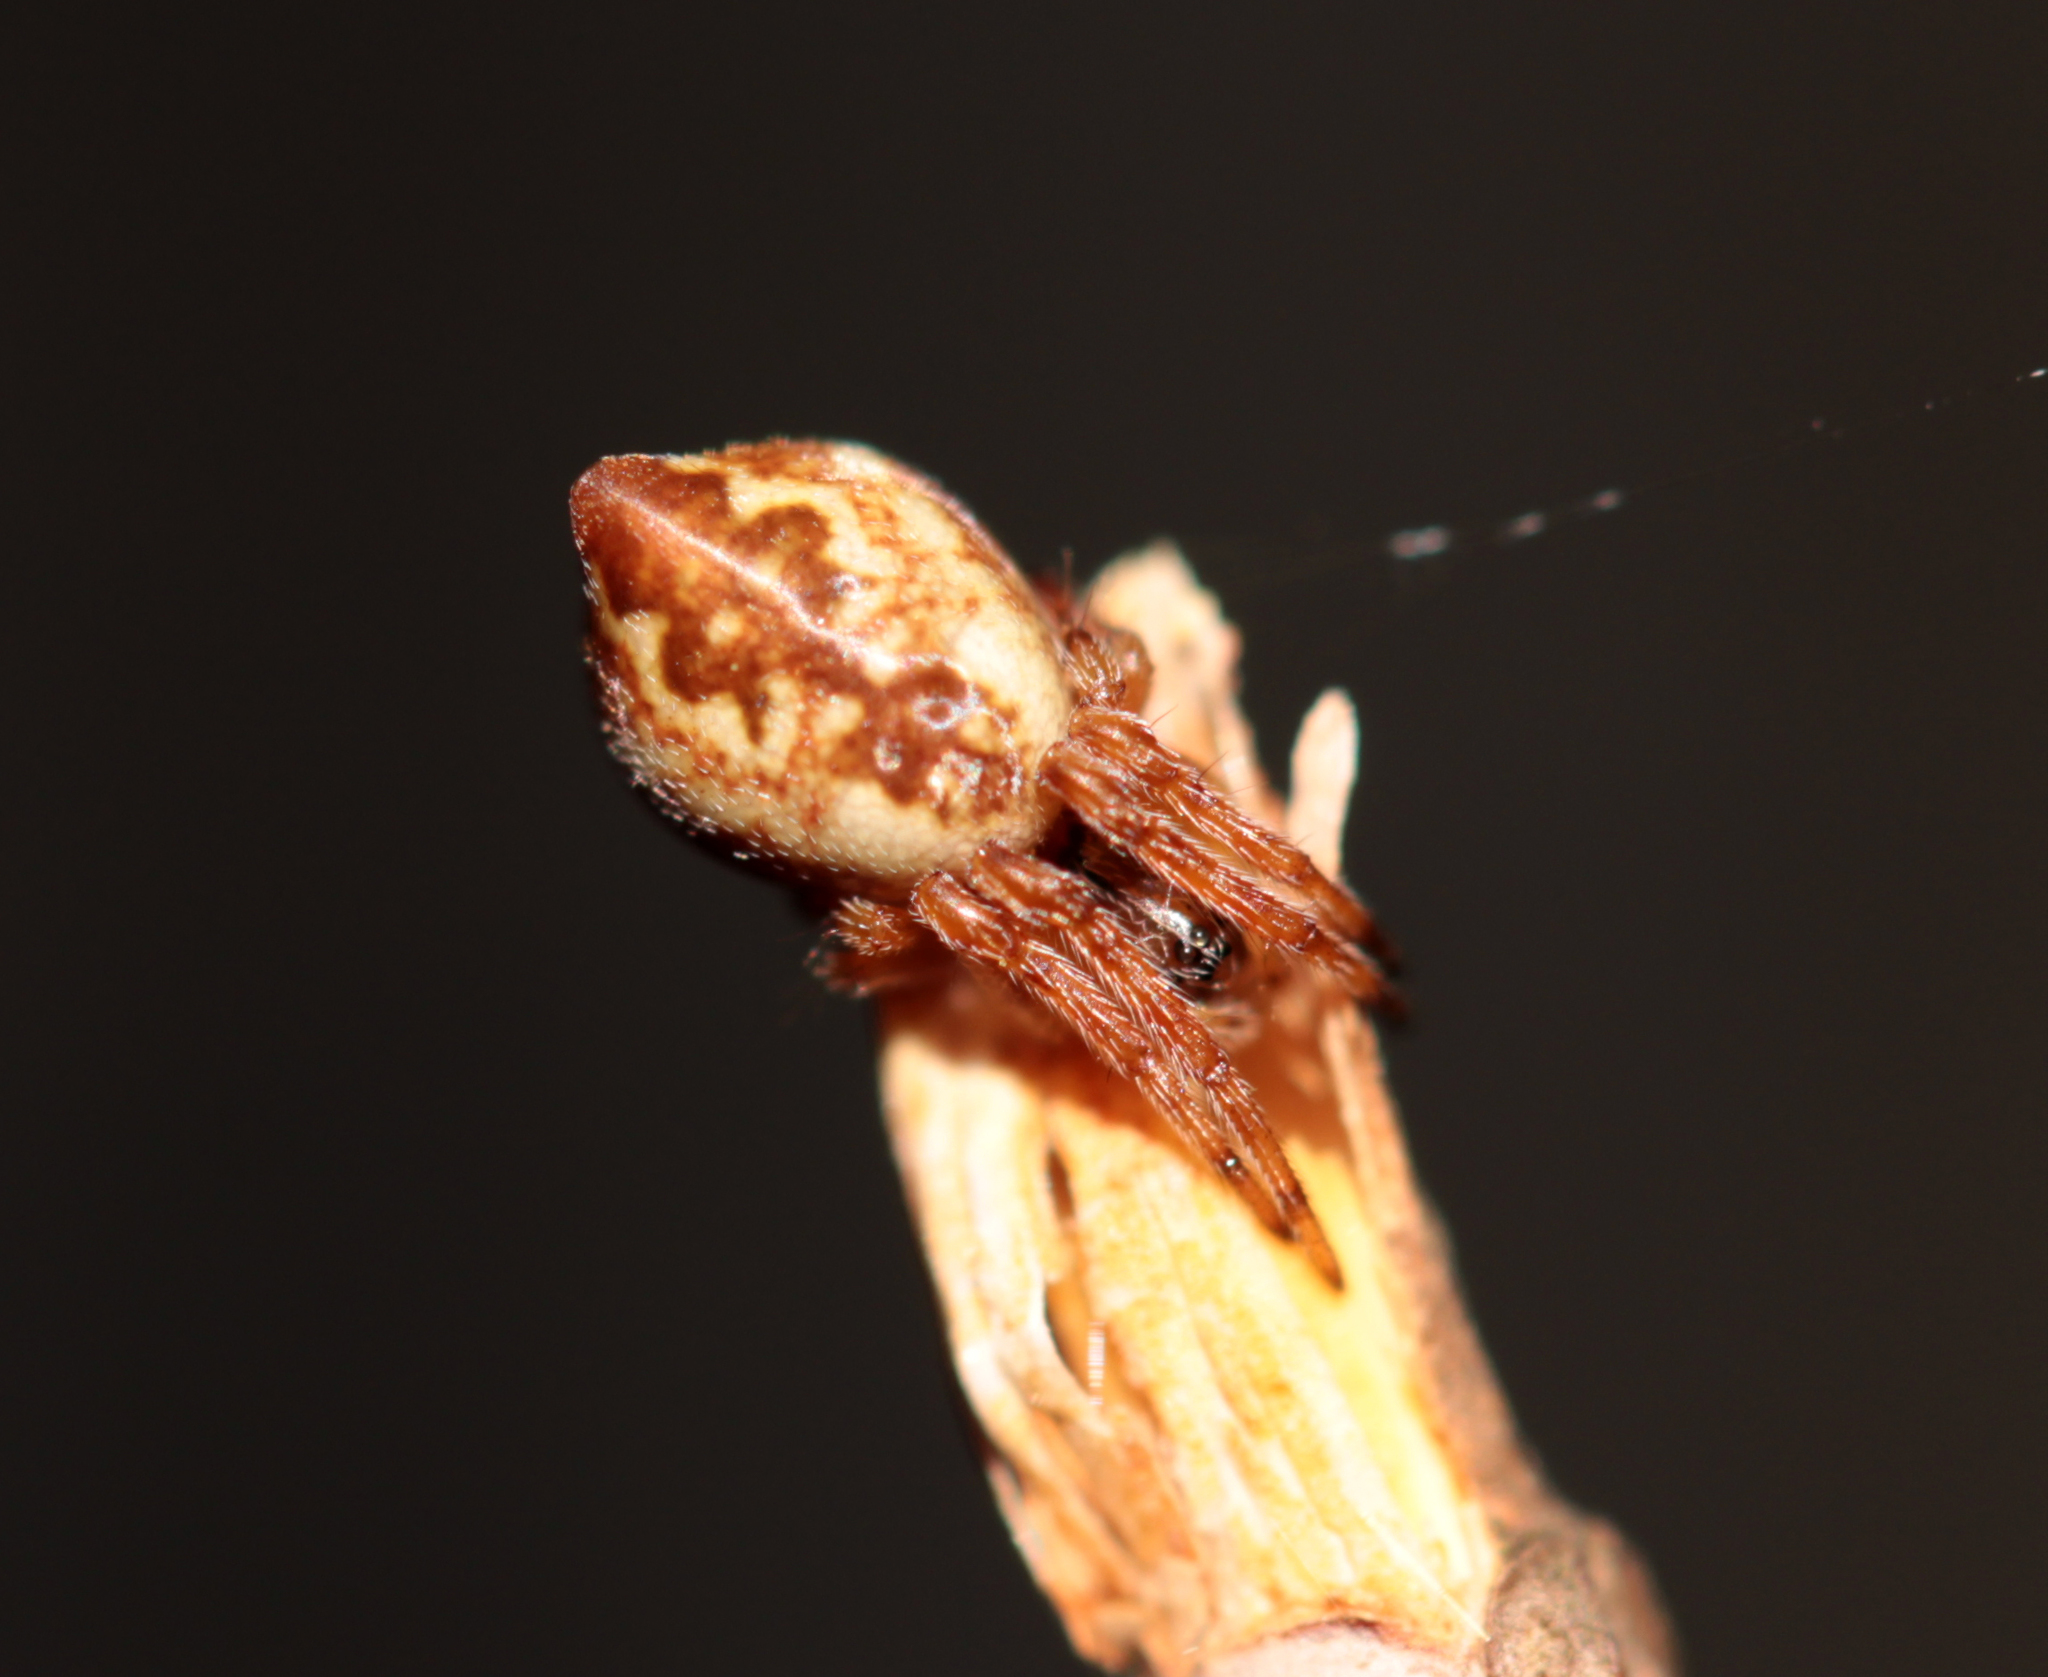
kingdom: Animalia
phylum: Arthropoda
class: Arachnida
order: Araneae
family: Araneidae
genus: Cyclosa
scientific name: Cyclosa conica
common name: Conical trashline orbweaver
